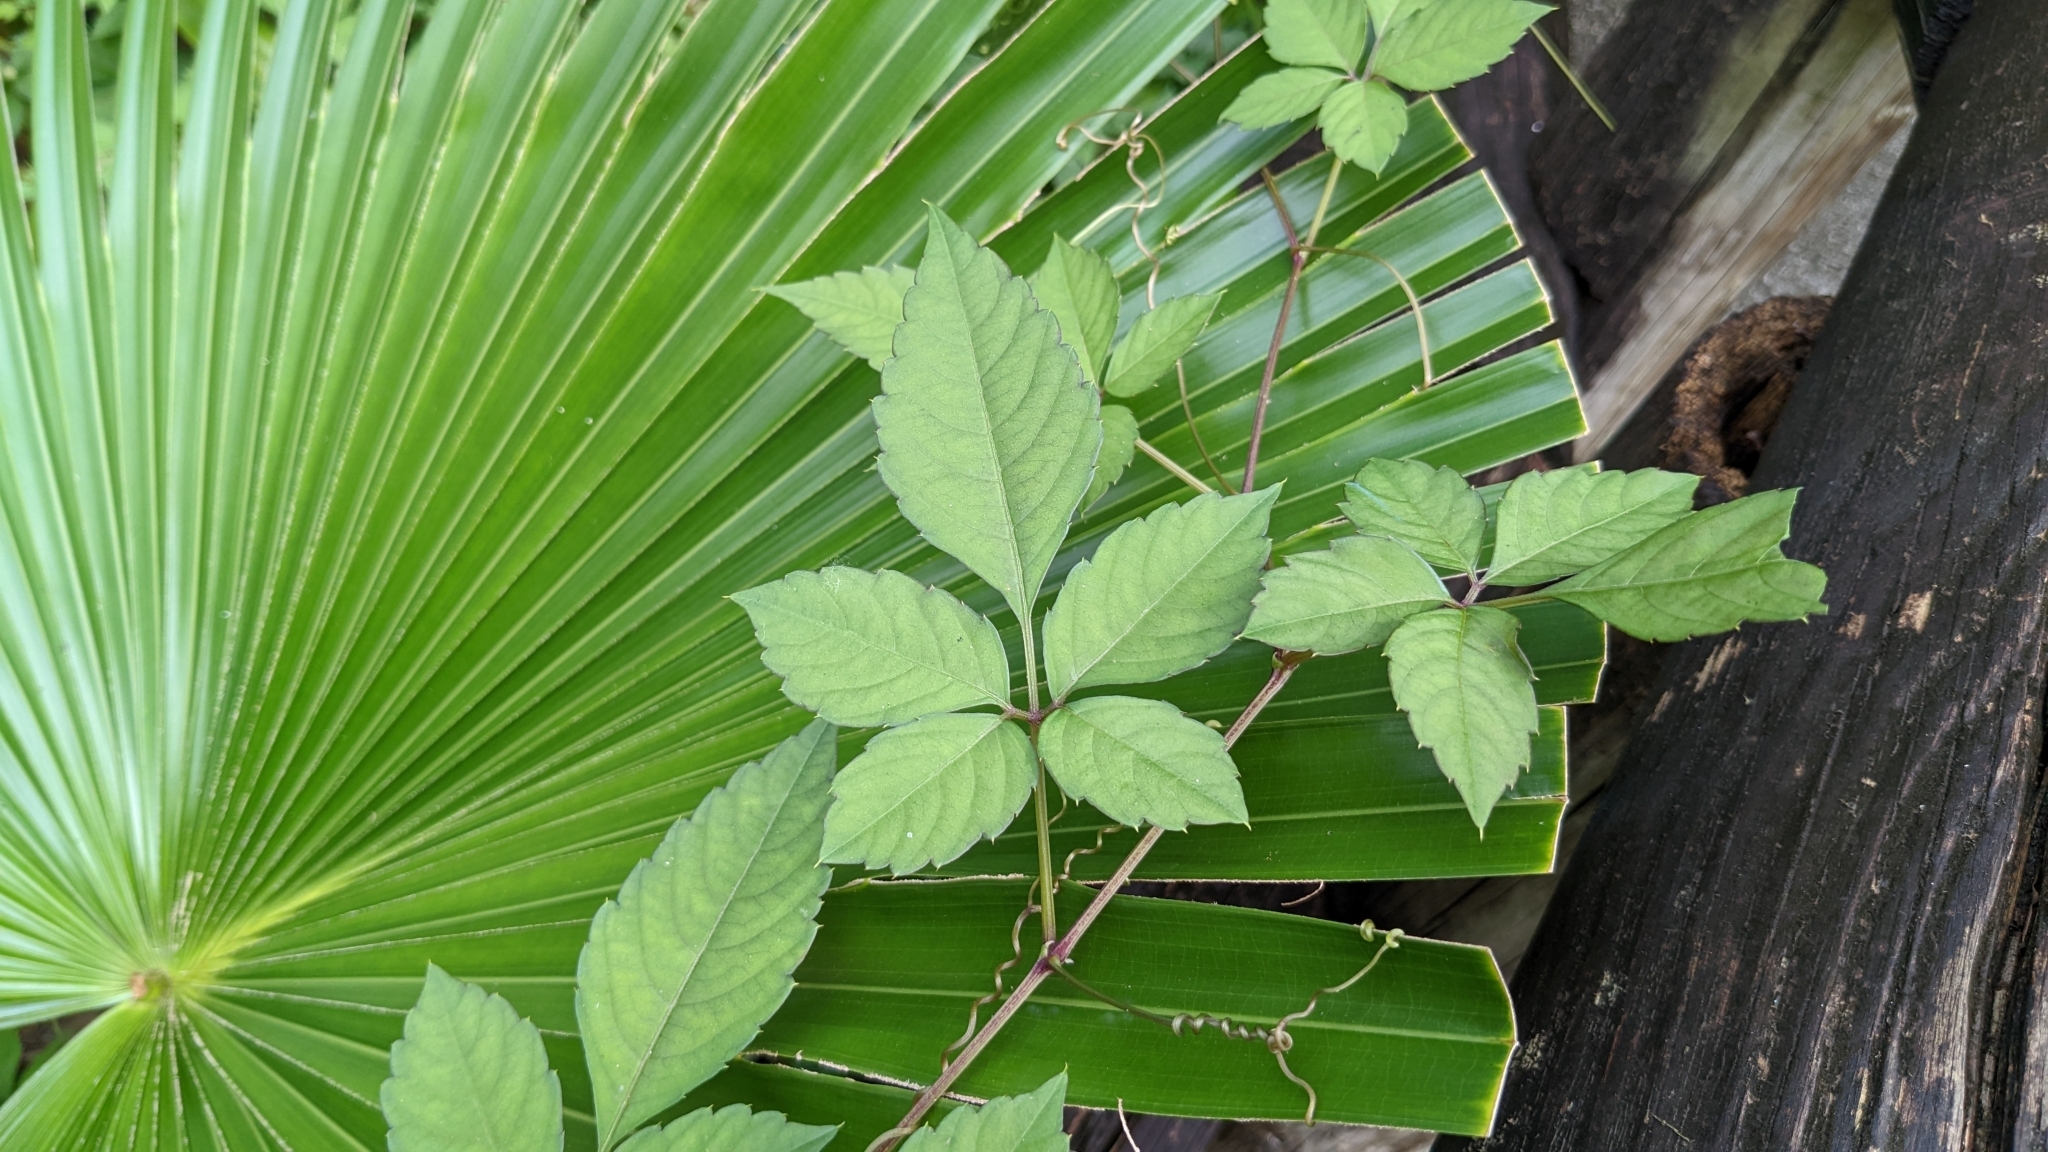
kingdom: Plantae
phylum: Tracheophyta
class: Magnoliopsida
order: Vitales
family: Vitaceae
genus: Causonis
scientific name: Causonis japonica
